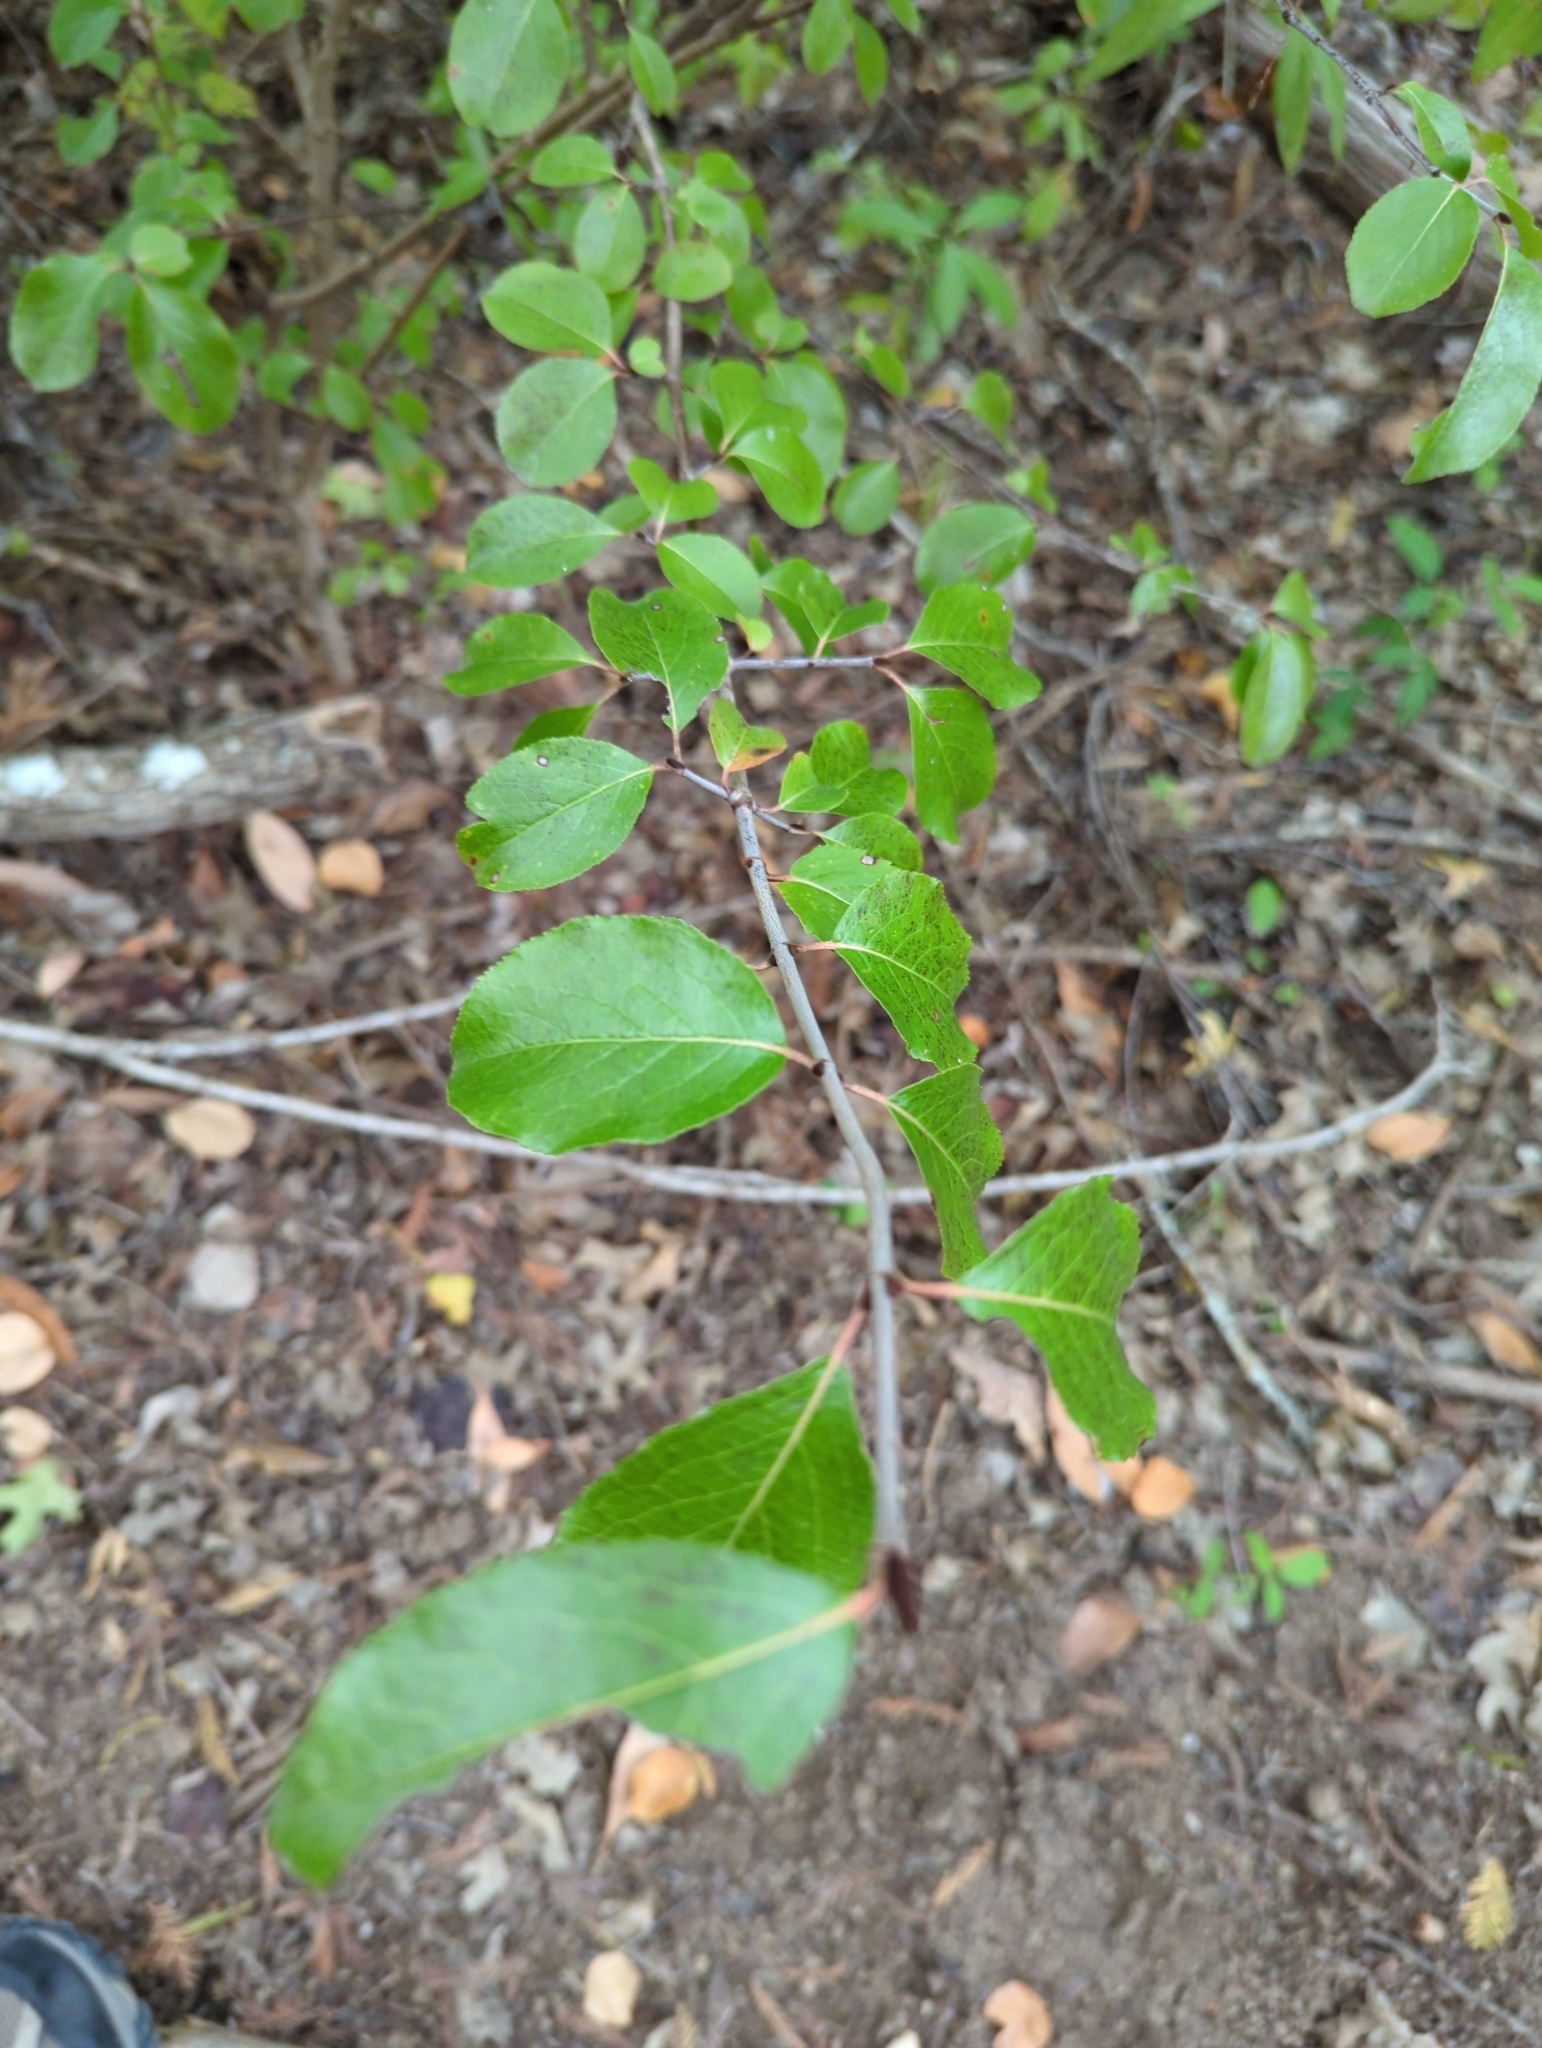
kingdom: Plantae
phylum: Tracheophyta
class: Magnoliopsida
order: Dipsacales
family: Viburnaceae
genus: Viburnum
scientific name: Viburnum rufidulum
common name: Blue haw
